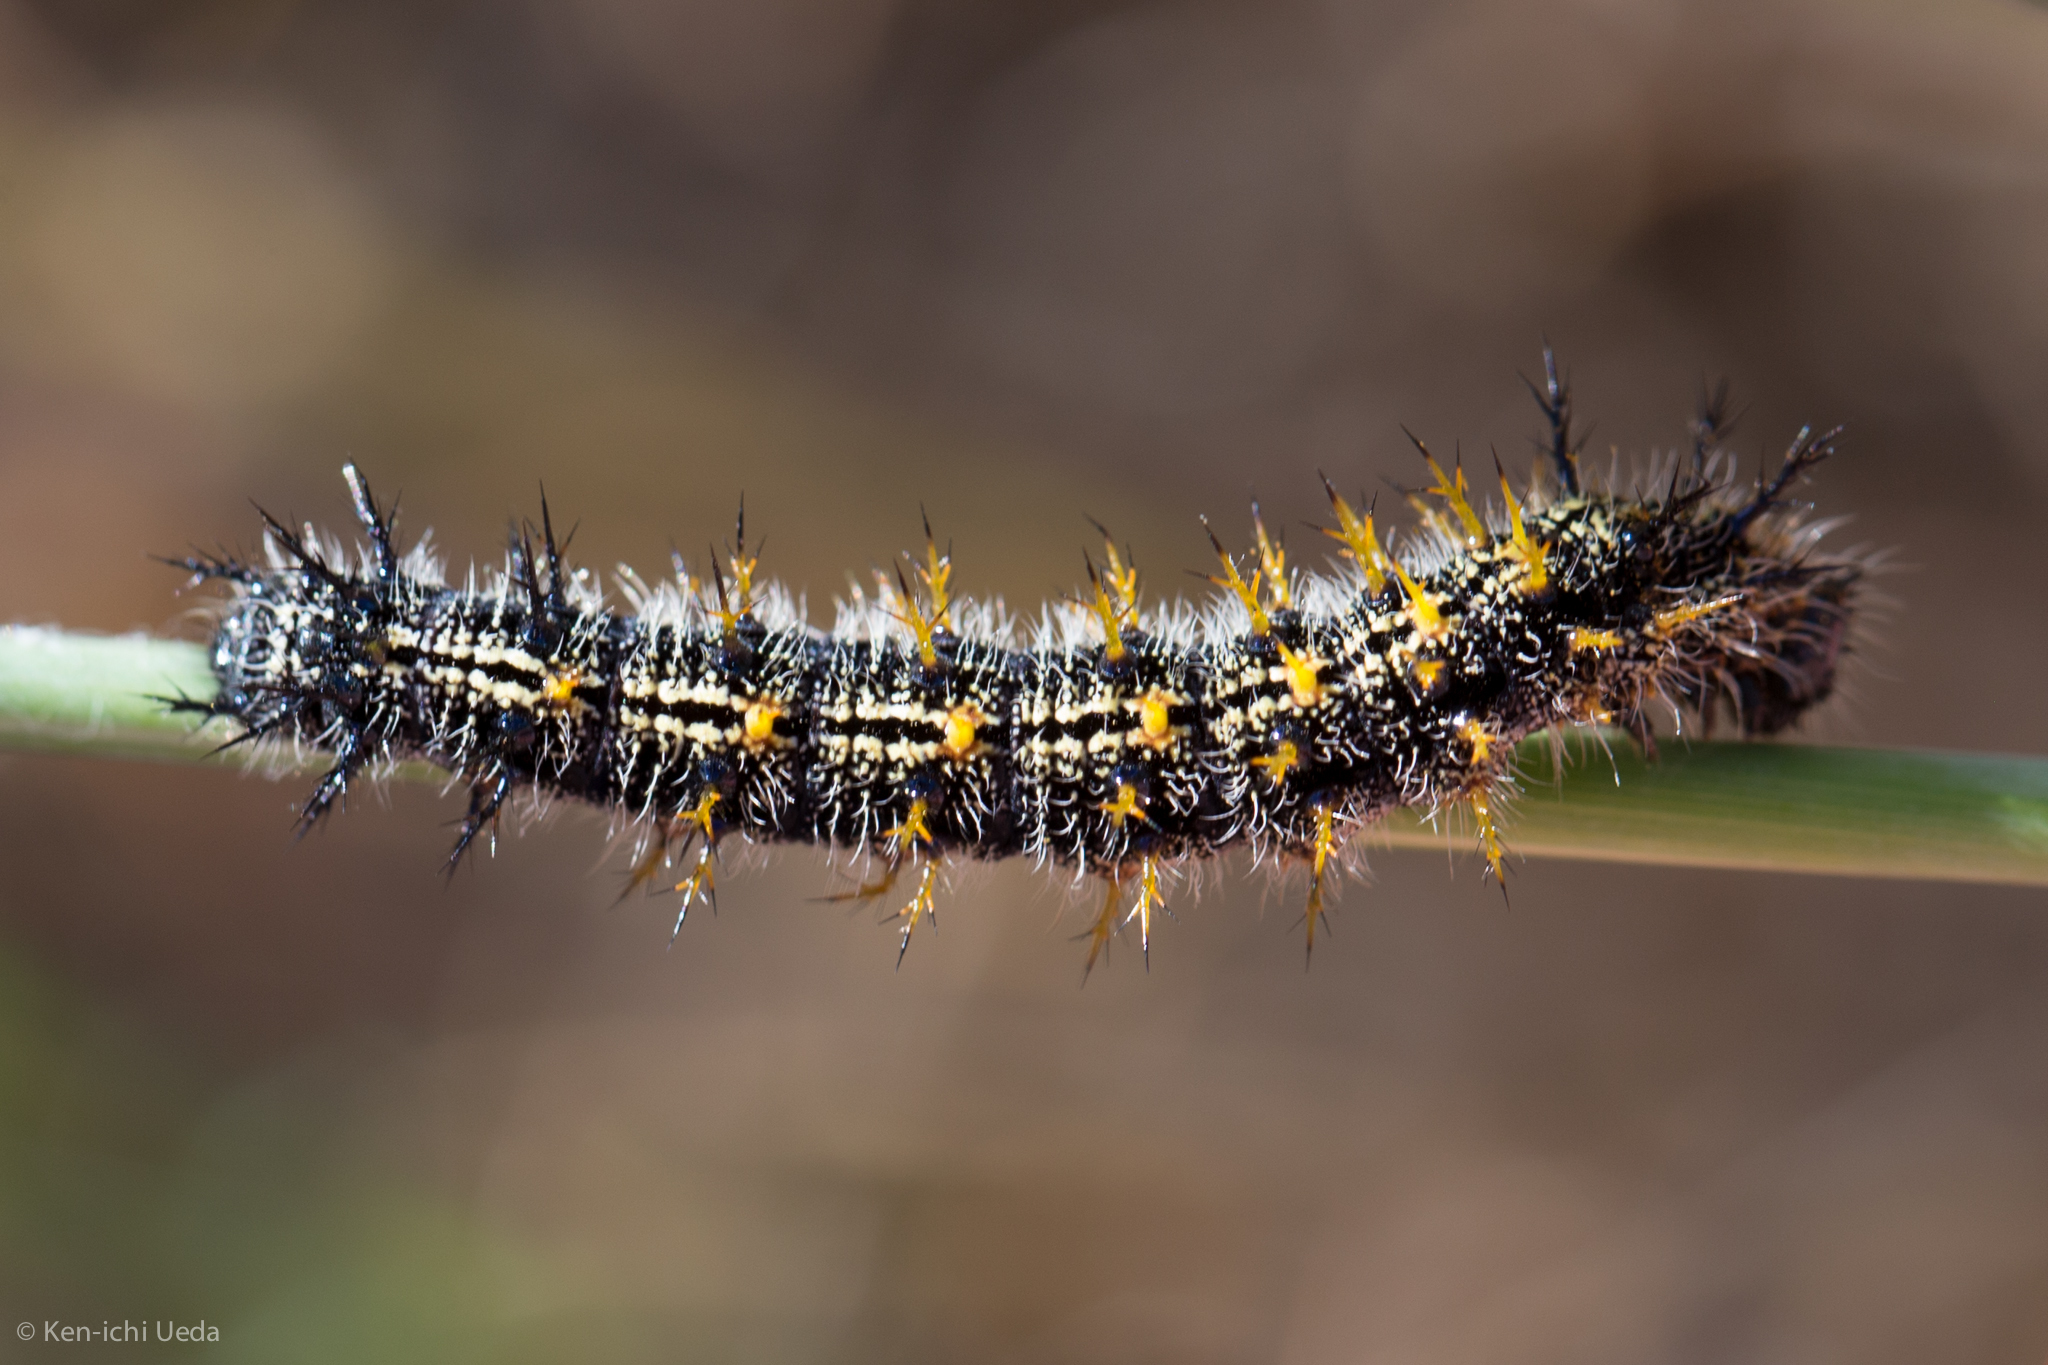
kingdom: Animalia
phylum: Arthropoda
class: Insecta
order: Lepidoptera
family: Nymphalidae
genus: Nymphalis
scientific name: Nymphalis californica
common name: California tortoiseshell
